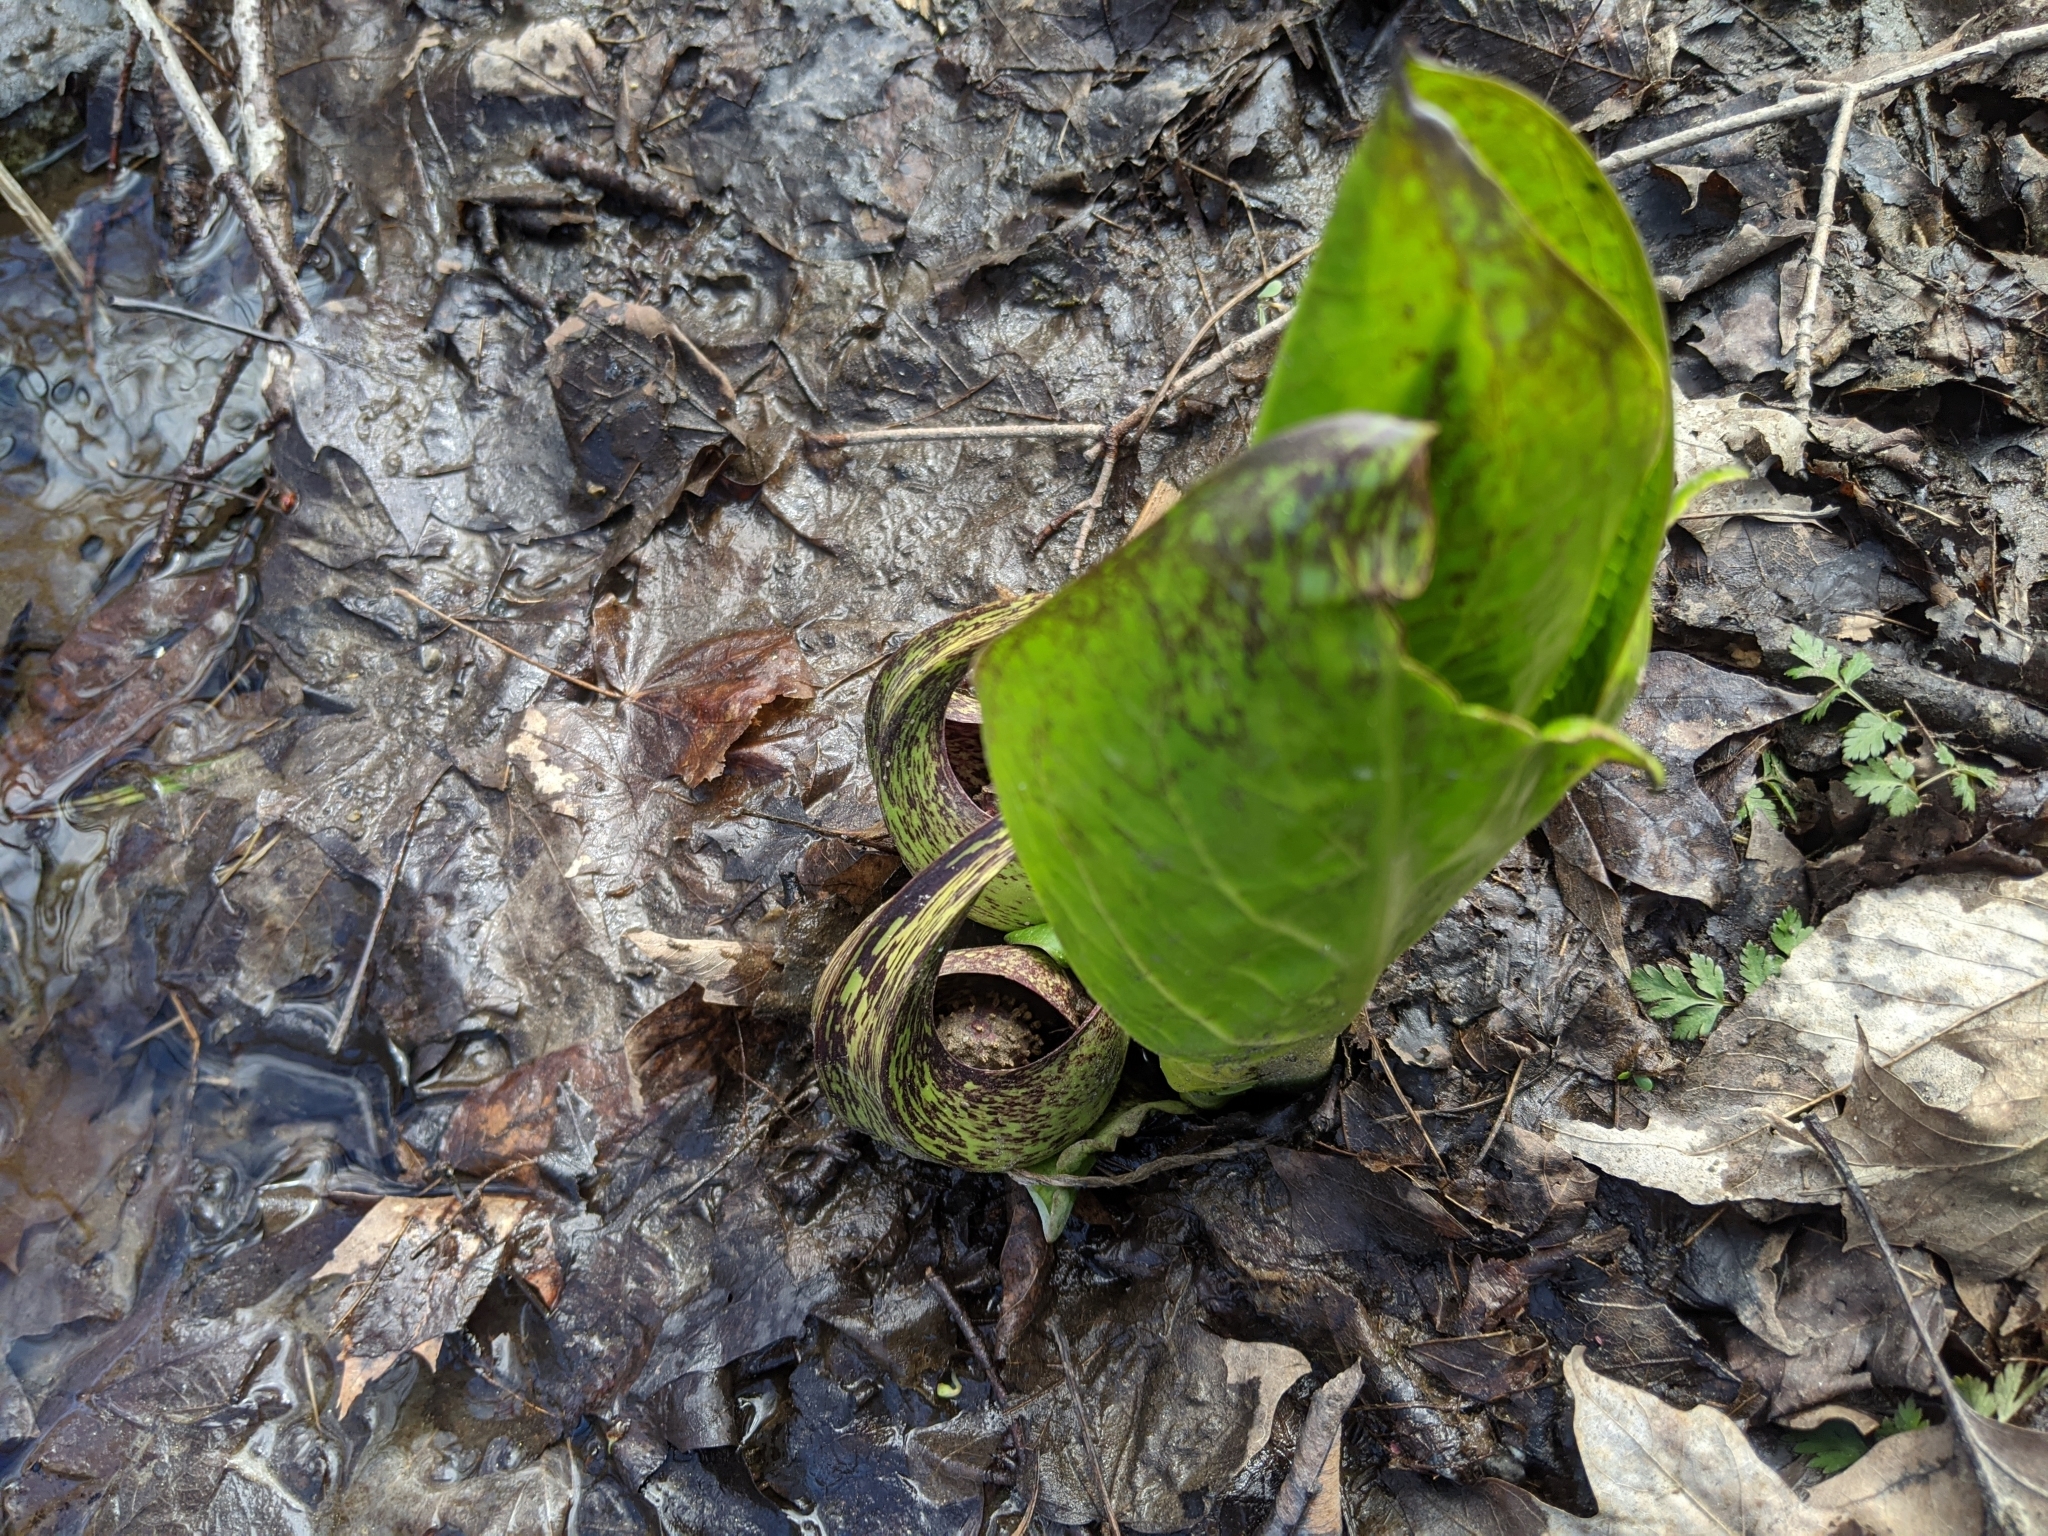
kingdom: Plantae
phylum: Tracheophyta
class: Liliopsida
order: Alismatales
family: Araceae
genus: Symplocarpus
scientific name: Symplocarpus foetidus
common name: Eastern skunk cabbage
